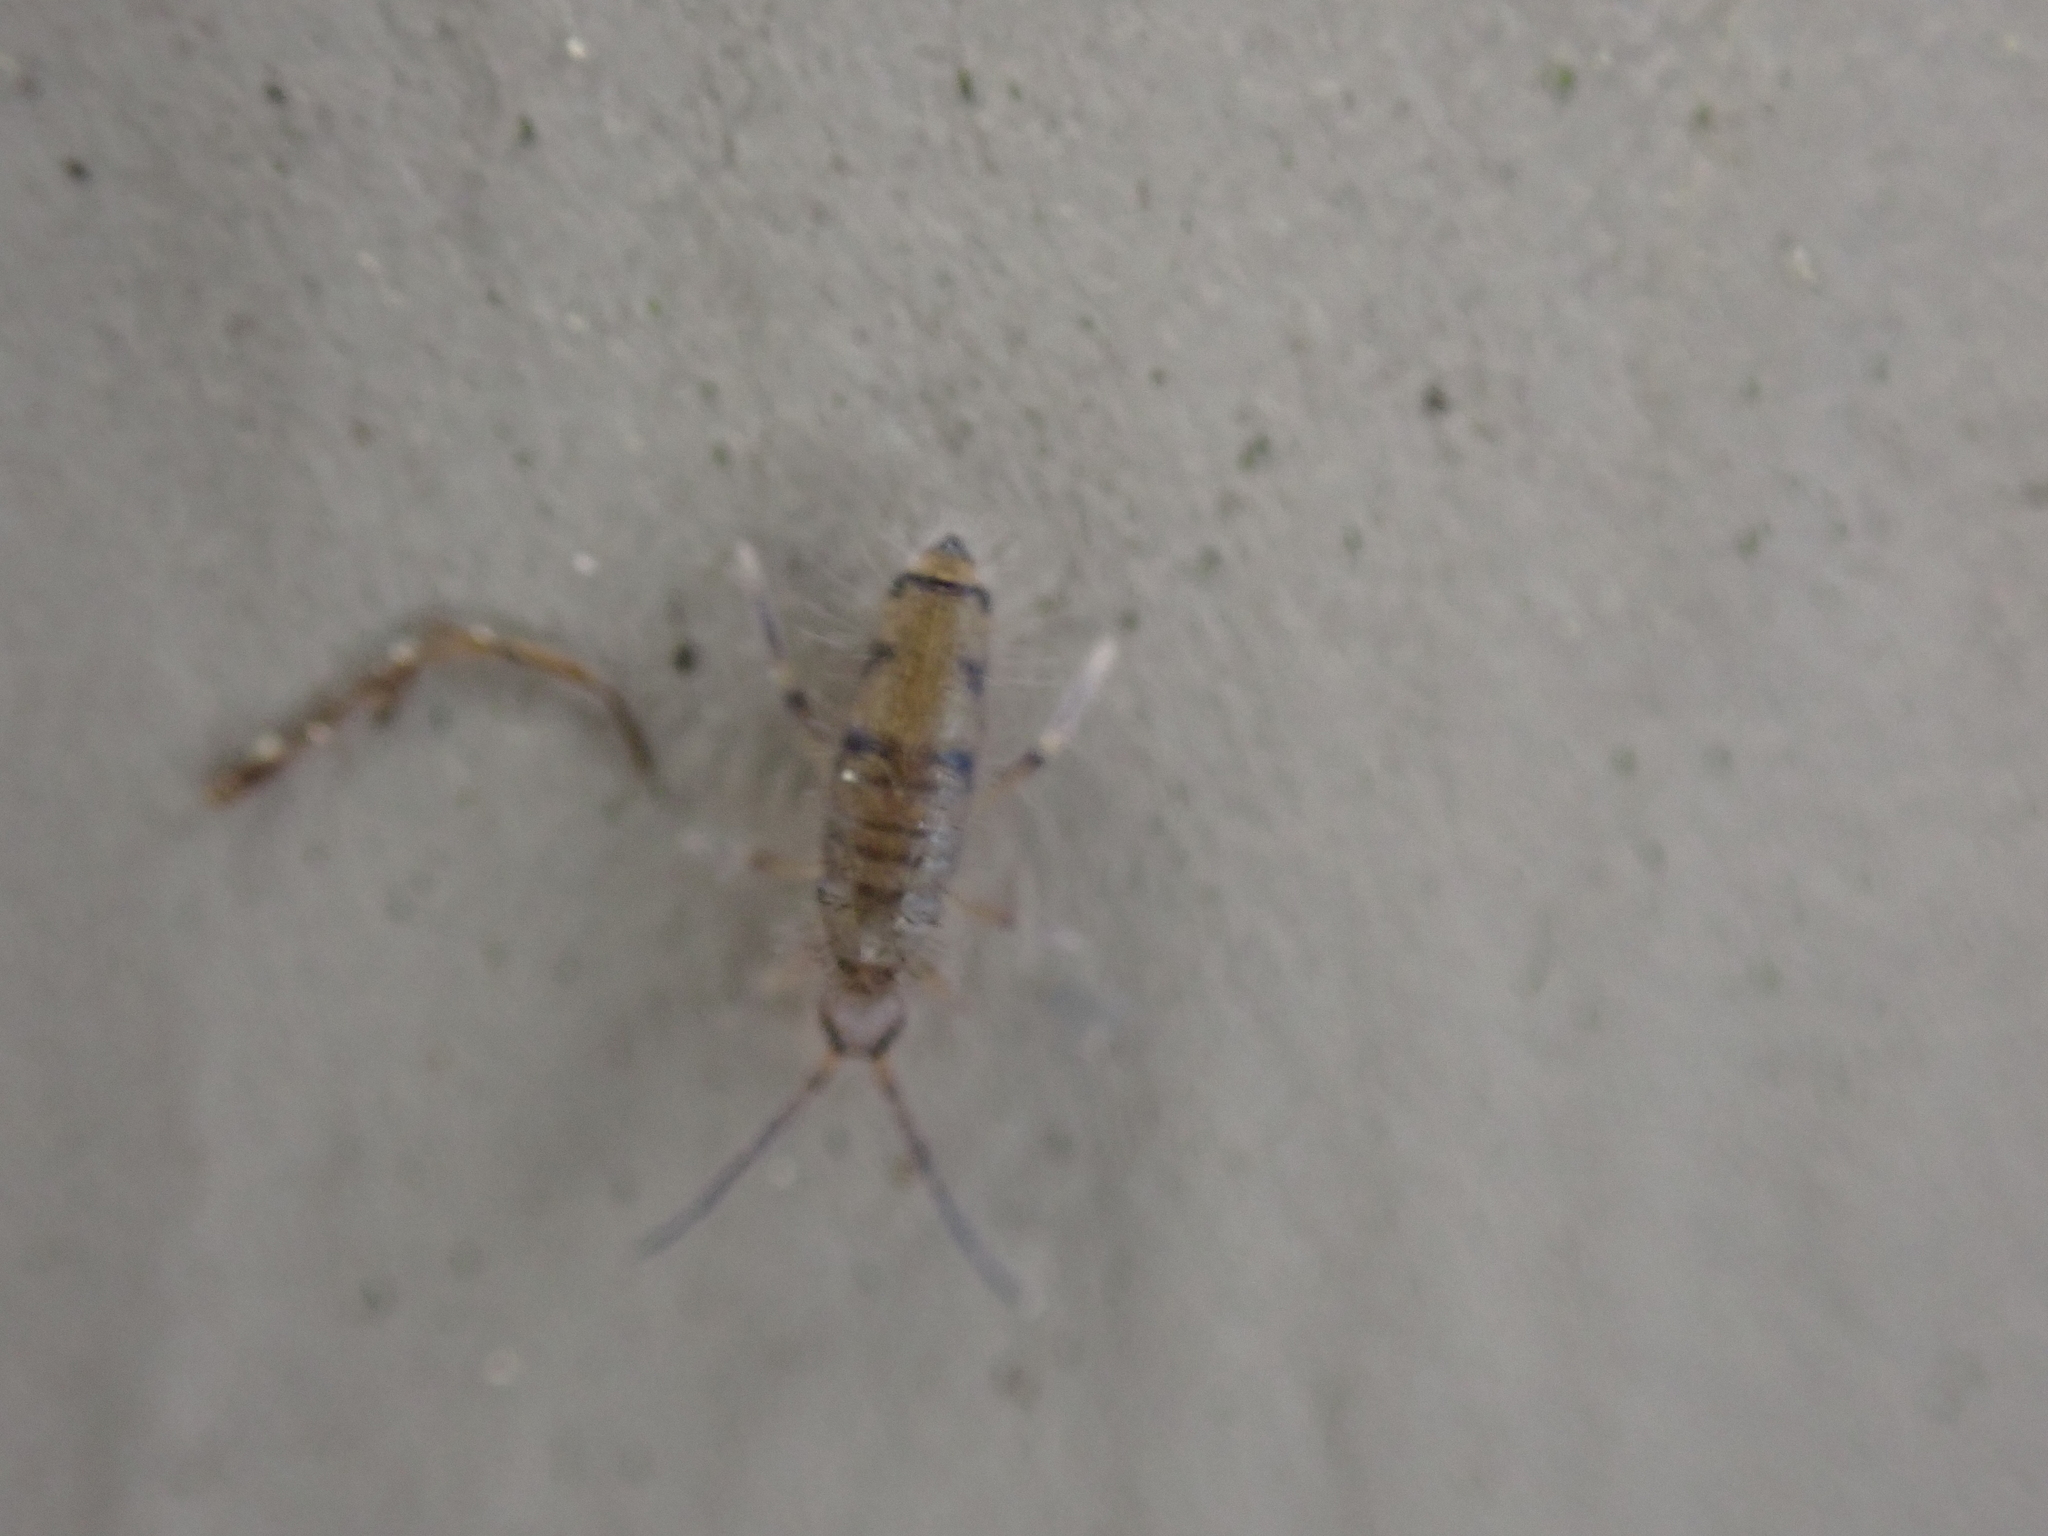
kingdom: Animalia
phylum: Arthropoda
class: Collembola
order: Entomobryomorpha
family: Entomobryidae
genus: Willowsia
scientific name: Willowsia nigromaculata
